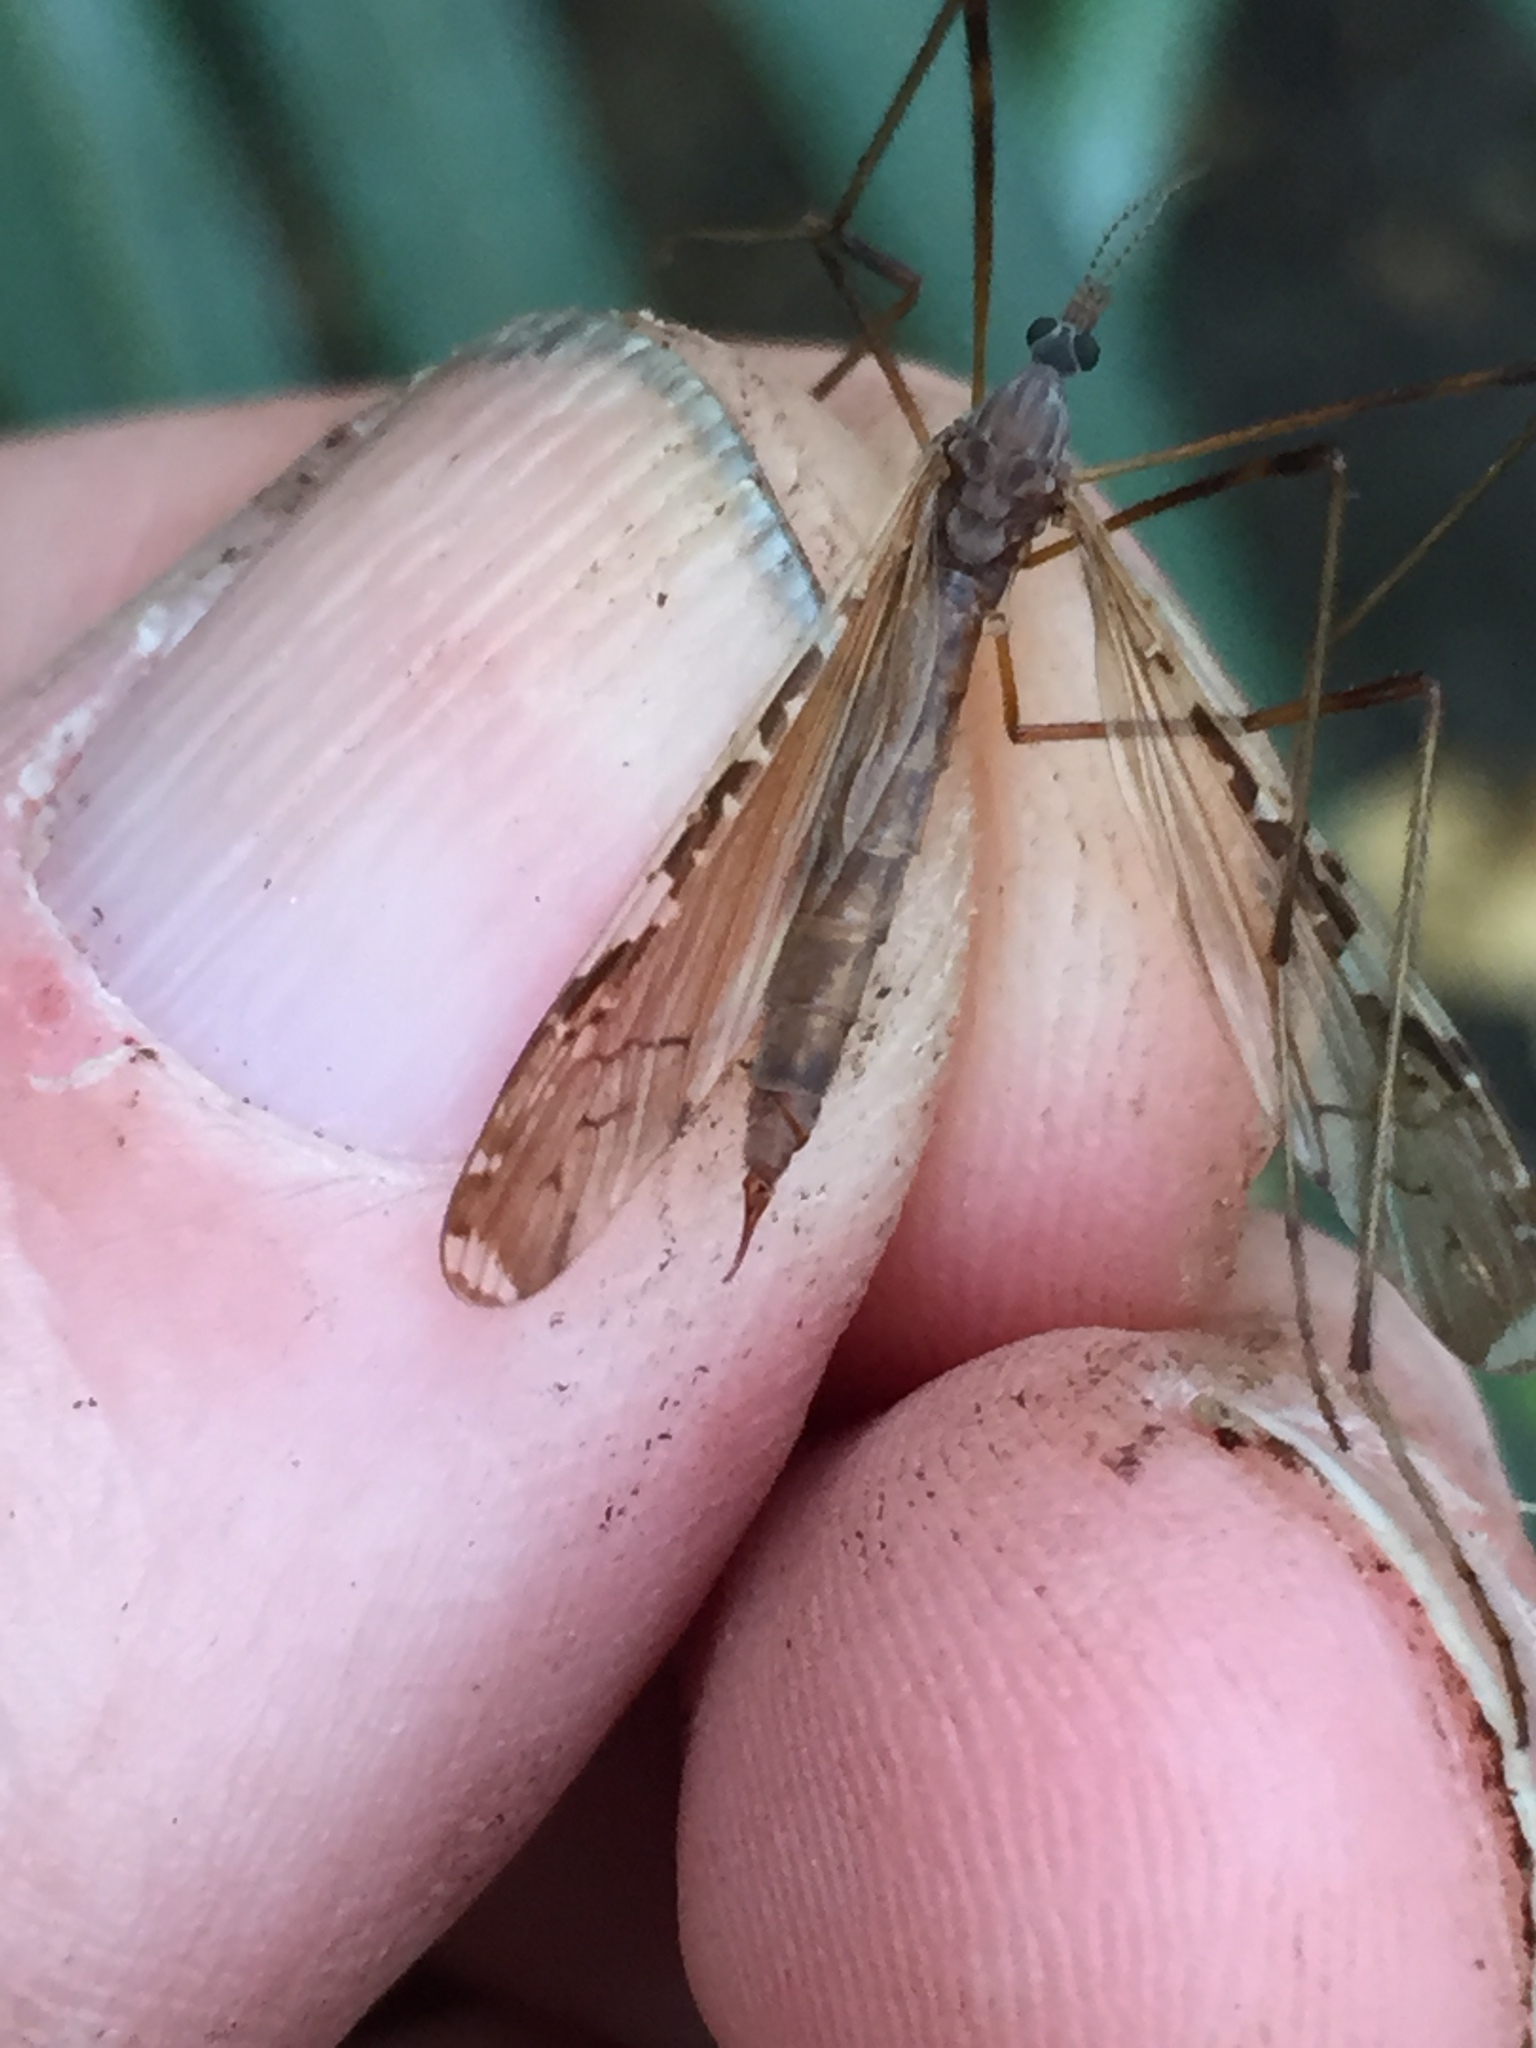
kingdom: Animalia
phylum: Arthropoda
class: Insecta
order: Diptera
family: Limoniidae
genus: Paralimnophila
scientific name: Paralimnophila skusei
